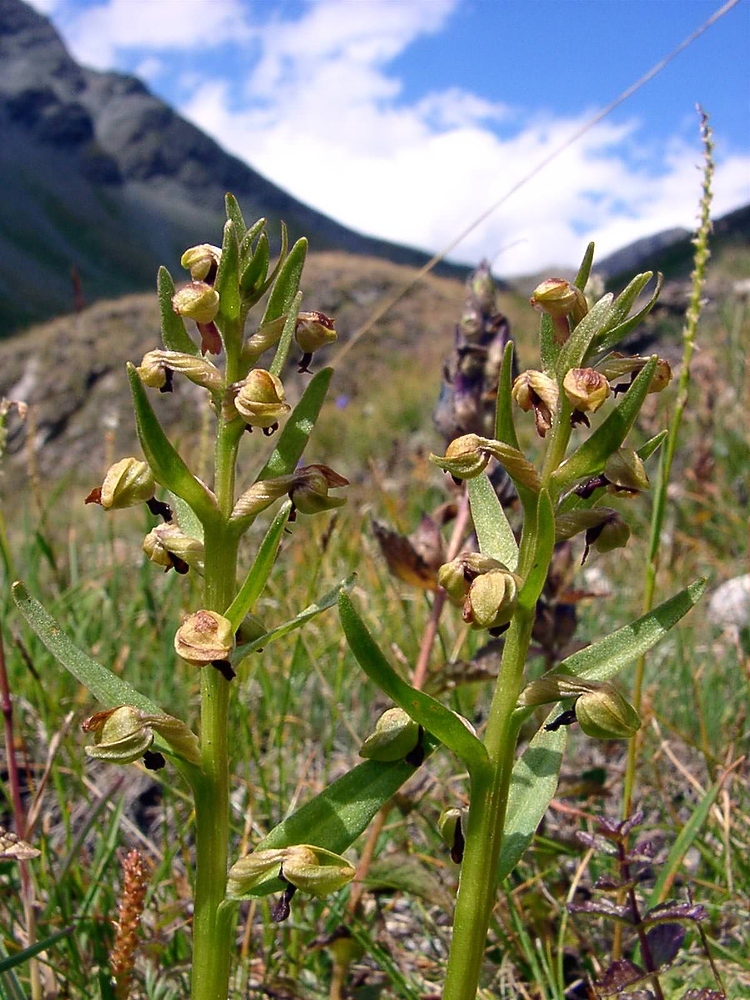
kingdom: Plantae
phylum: Tracheophyta
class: Liliopsida
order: Asparagales
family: Orchidaceae
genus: Dactylorhiza
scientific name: Dactylorhiza viridis
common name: Longbract frog orchid
